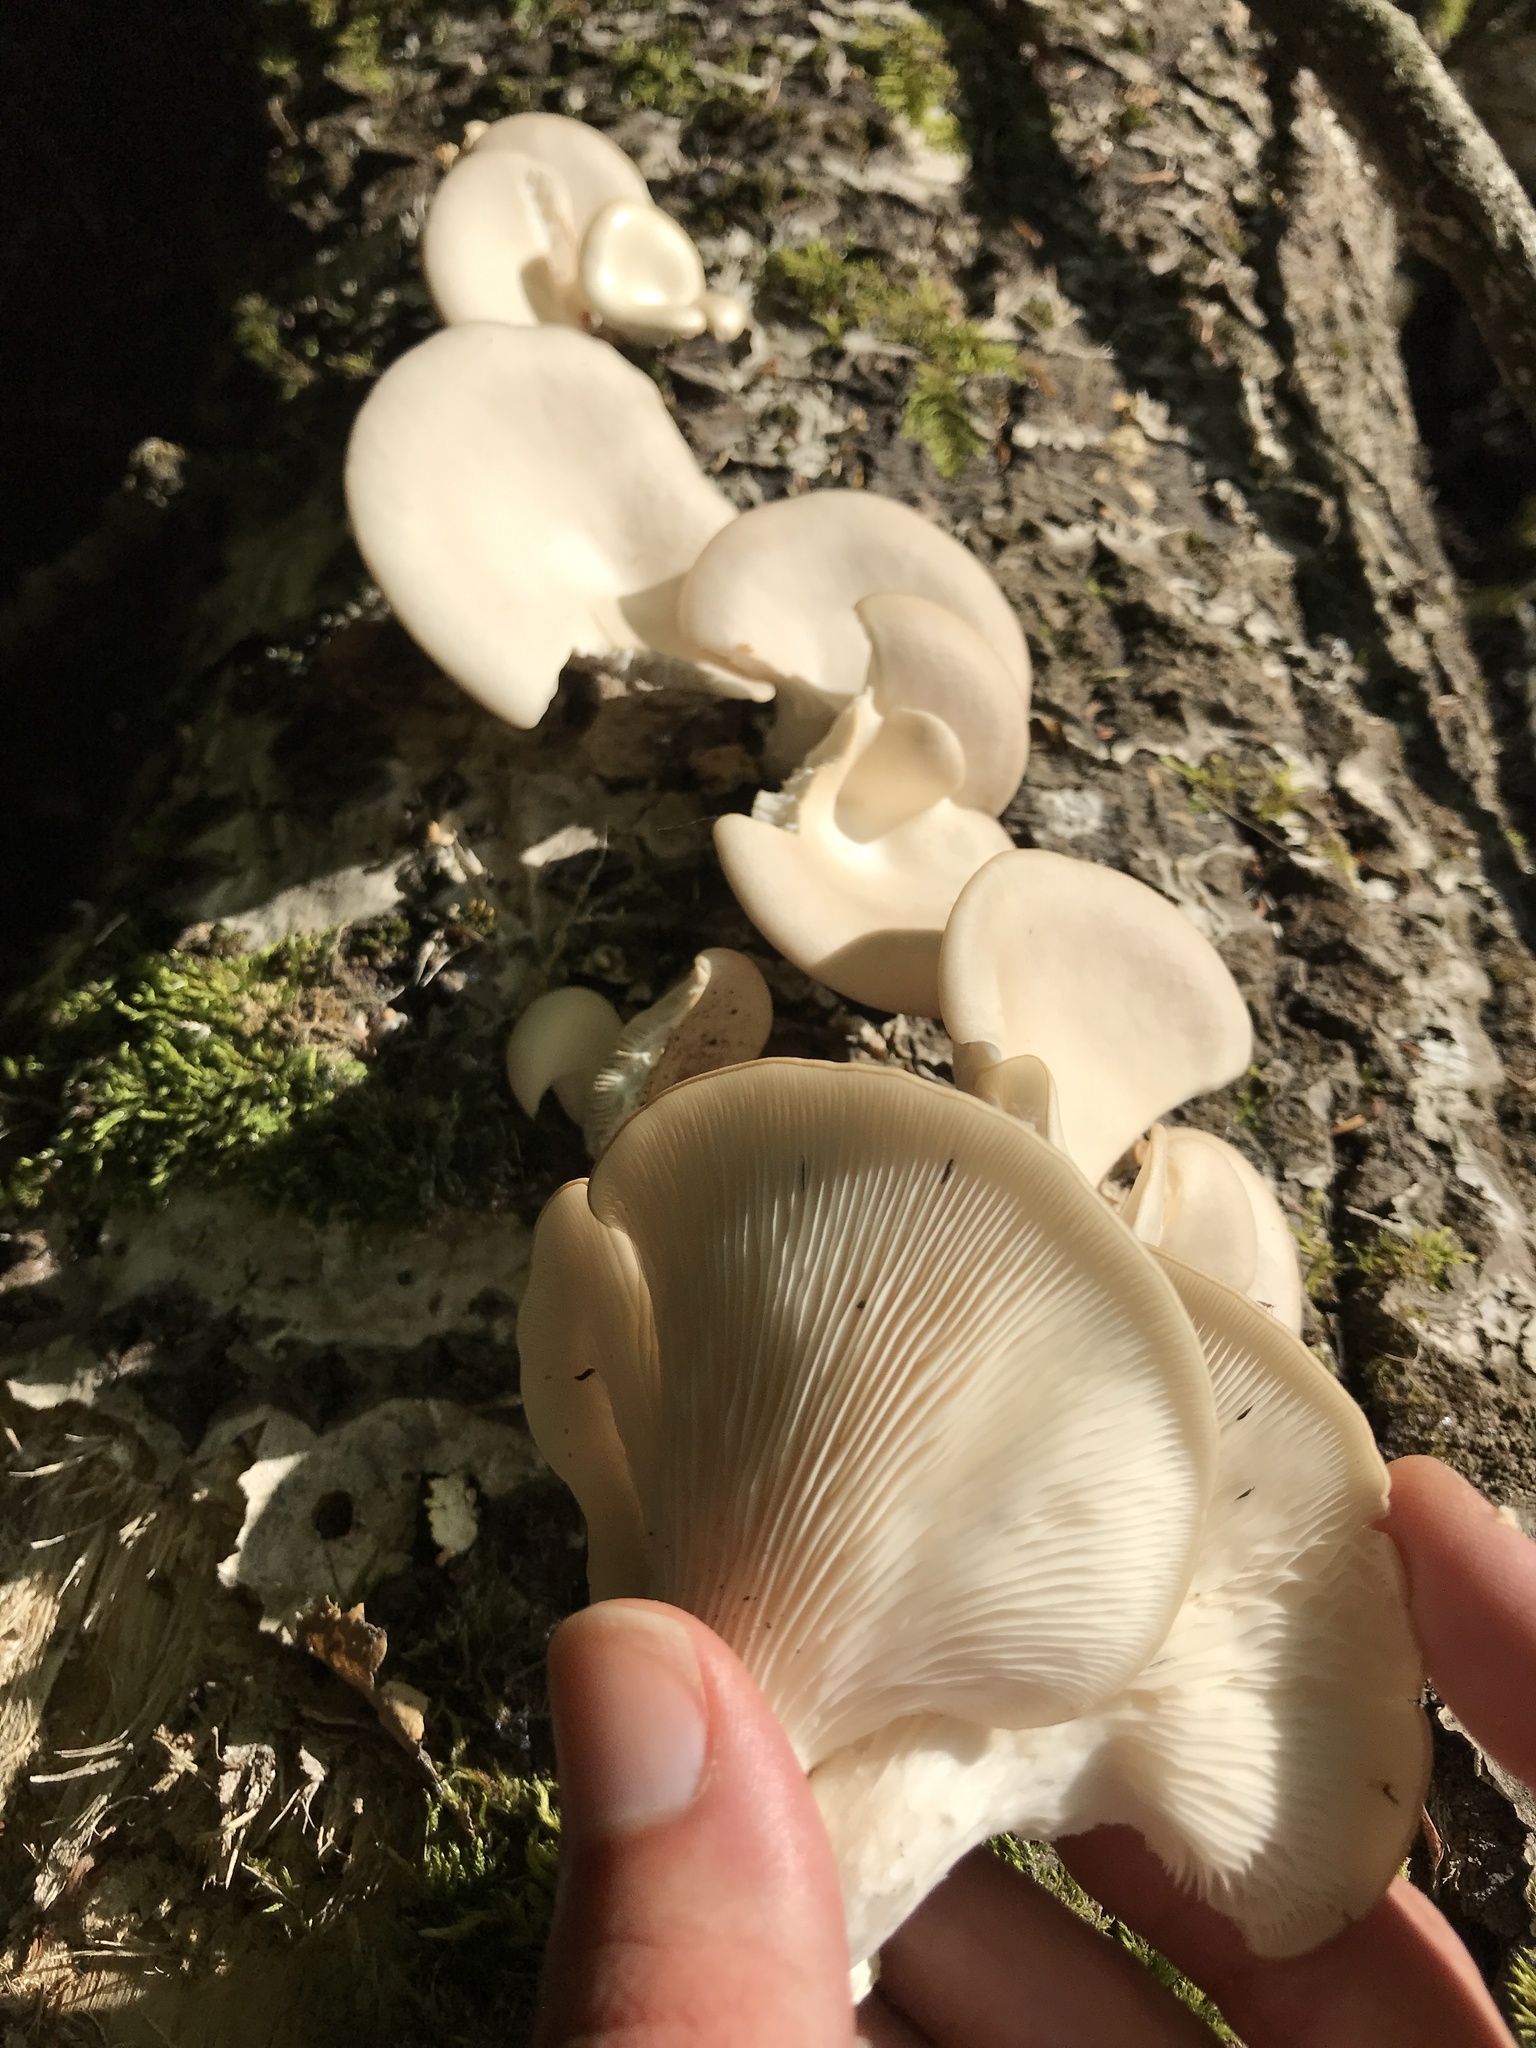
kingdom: Fungi
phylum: Basidiomycota
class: Agaricomycetes
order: Agaricales
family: Pleurotaceae
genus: Pleurotus
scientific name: Pleurotus pulmonarius
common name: Pale oyster
